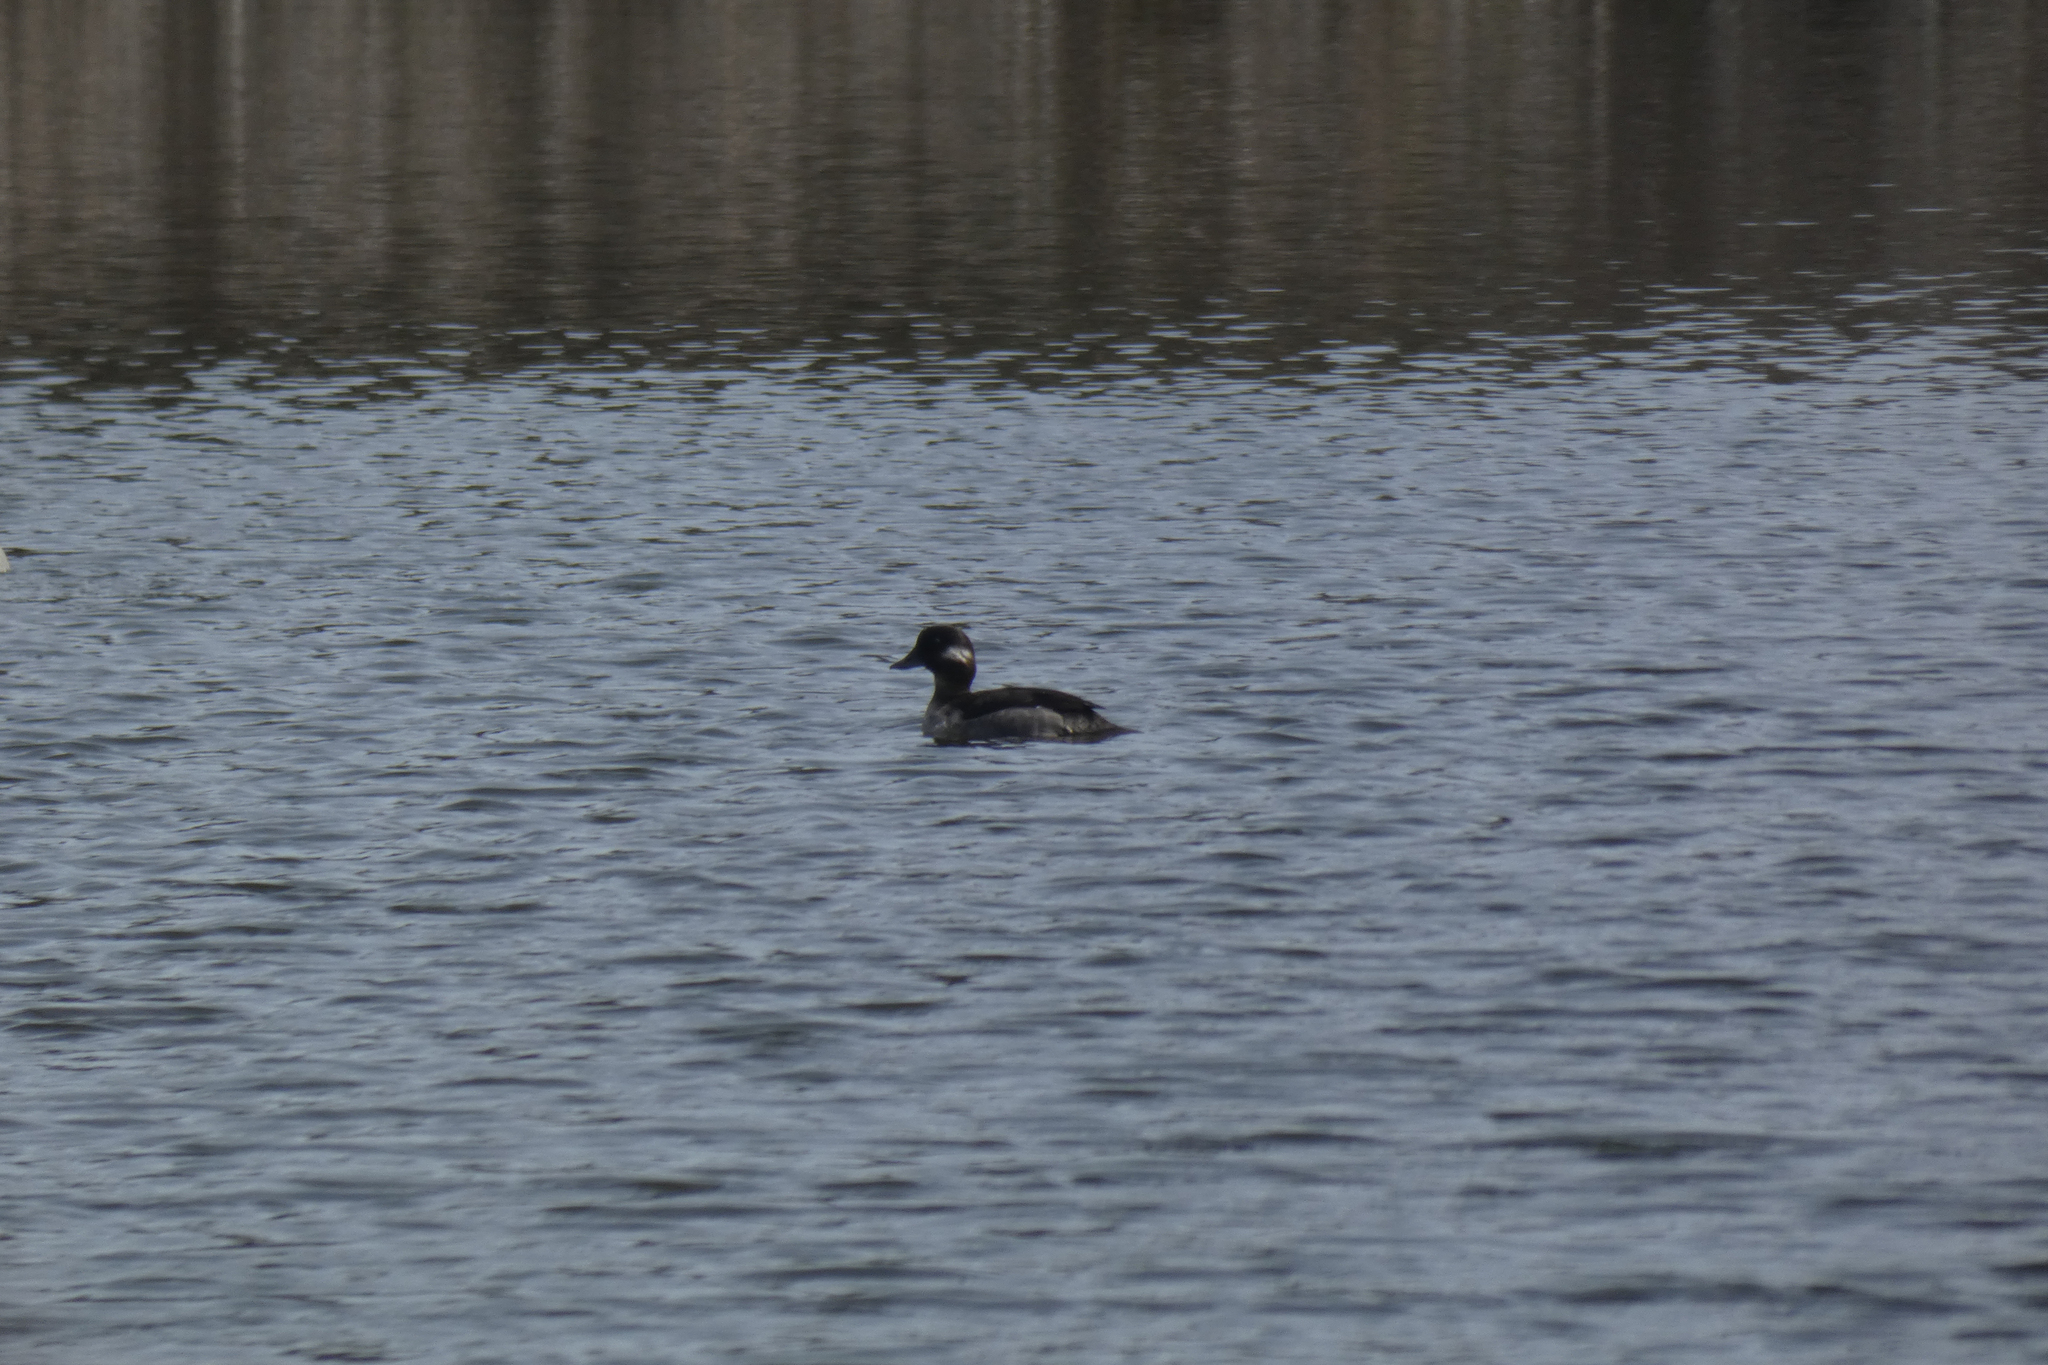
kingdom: Animalia
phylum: Chordata
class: Aves
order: Anseriformes
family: Anatidae
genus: Bucephala
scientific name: Bucephala albeola
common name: Bufflehead
